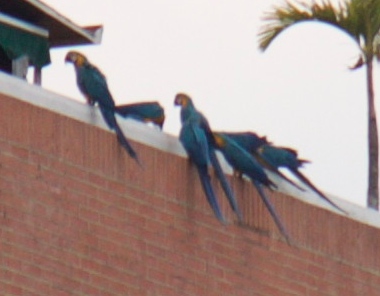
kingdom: Animalia
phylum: Chordata
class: Aves
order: Psittaciformes
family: Psittacidae
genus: Ara
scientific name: Ara ararauna
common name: Blue-and-yellow macaw
